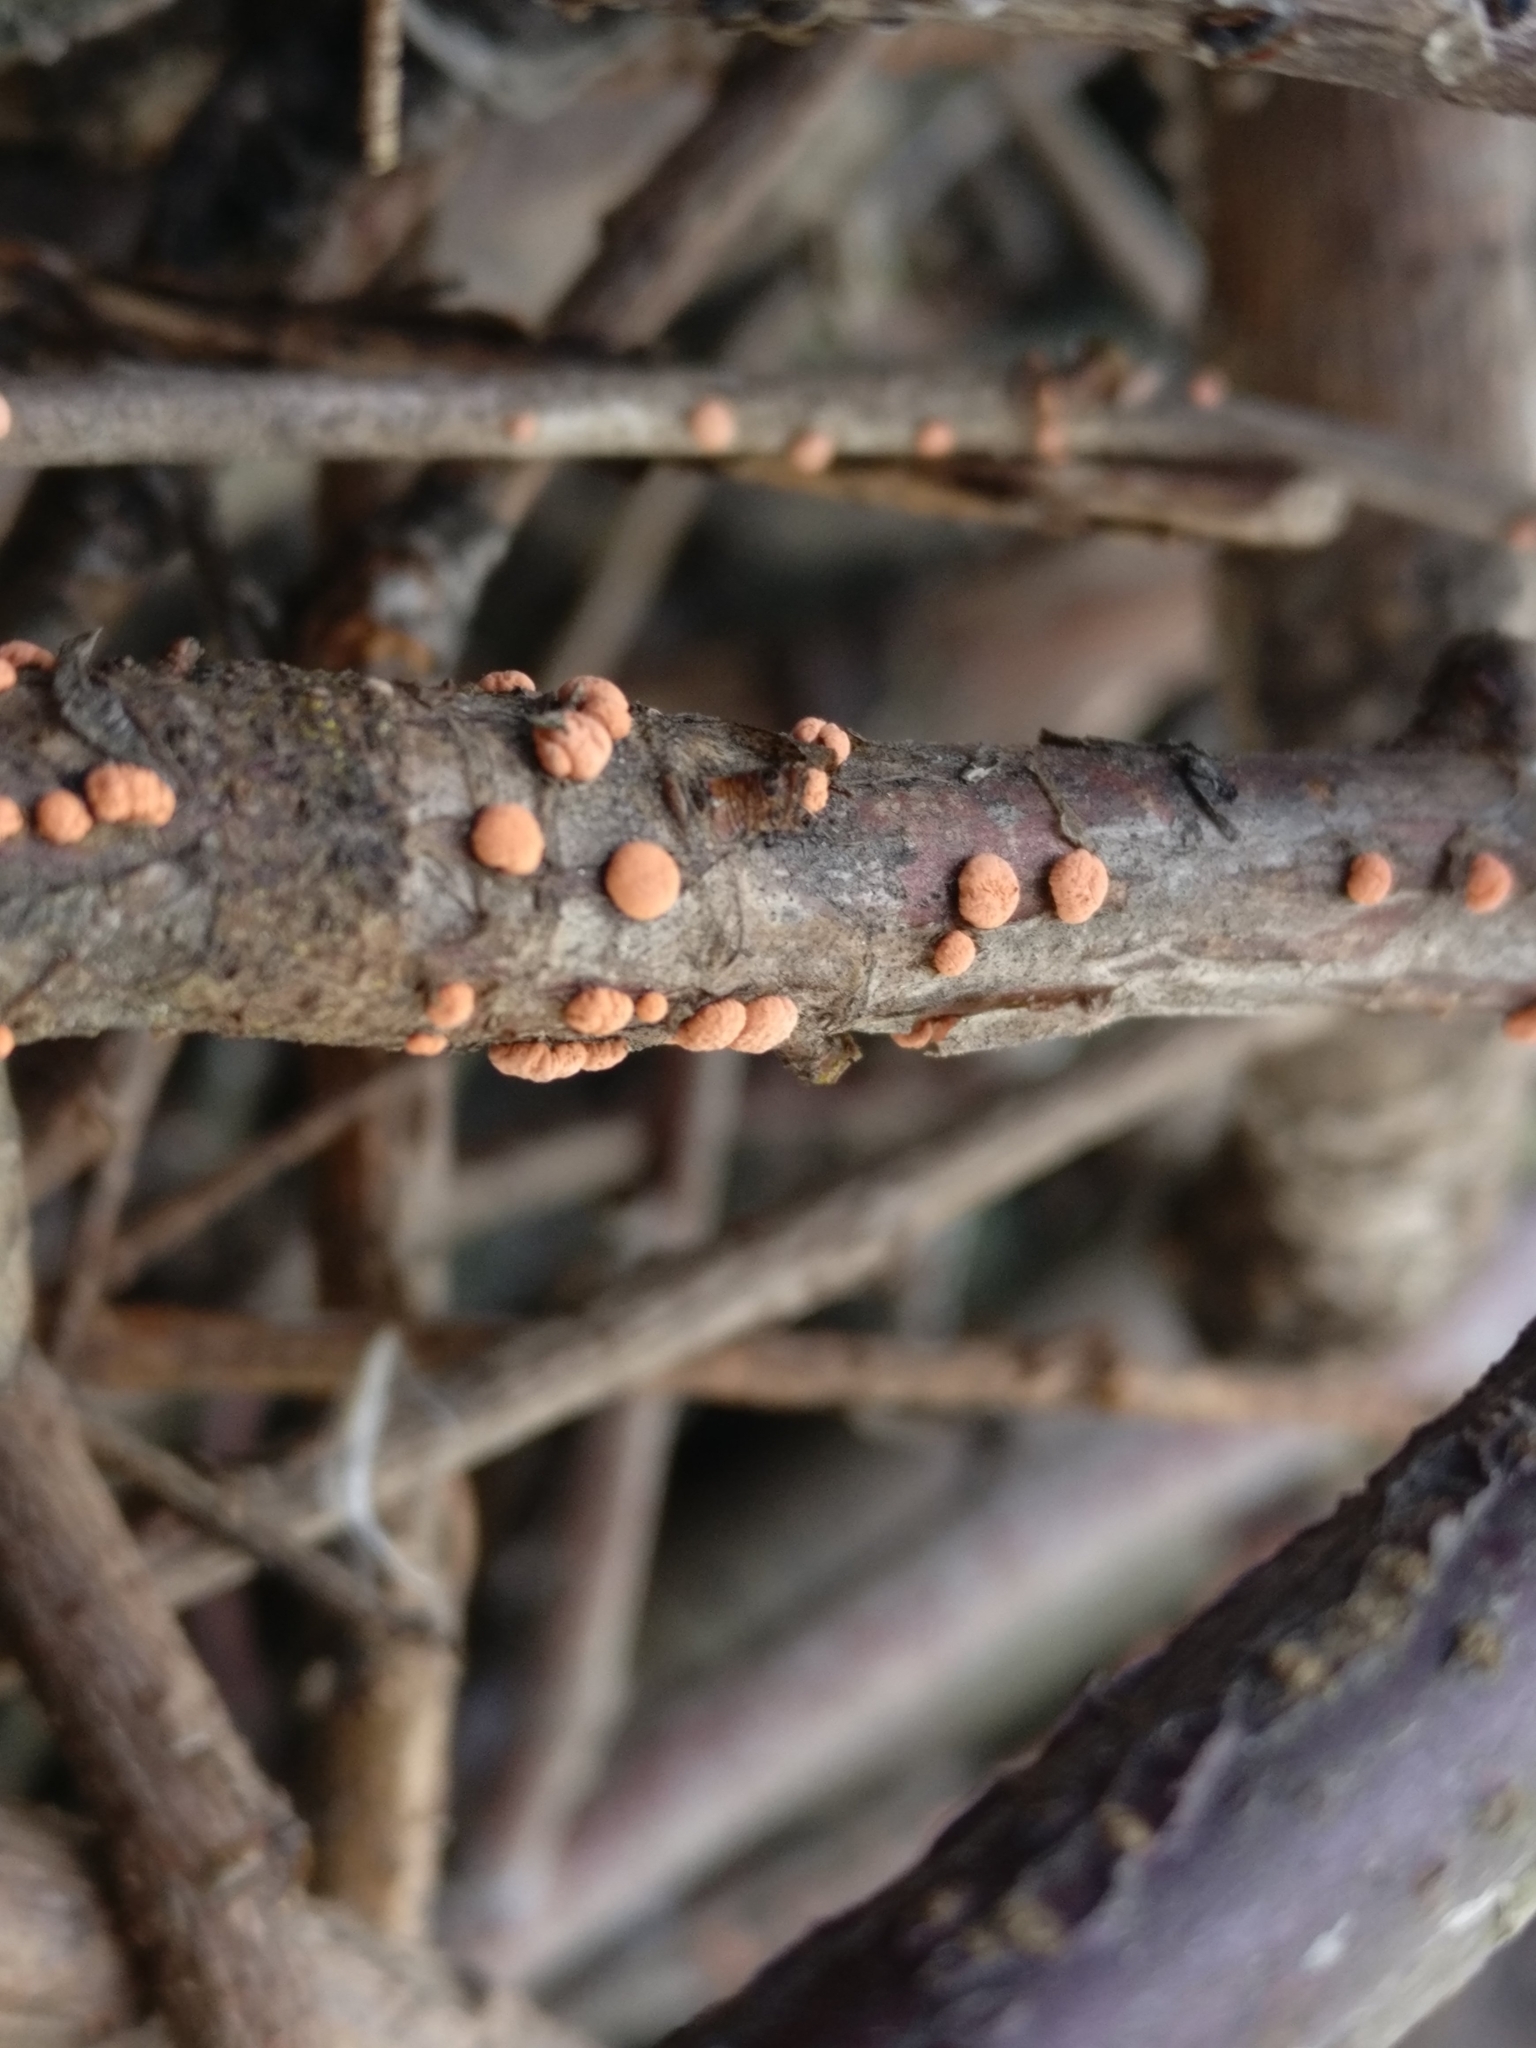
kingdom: Fungi
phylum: Ascomycota
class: Sordariomycetes
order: Hypocreales
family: Nectriaceae
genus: Nectria
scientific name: Nectria cinnabarina
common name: Coral spot
